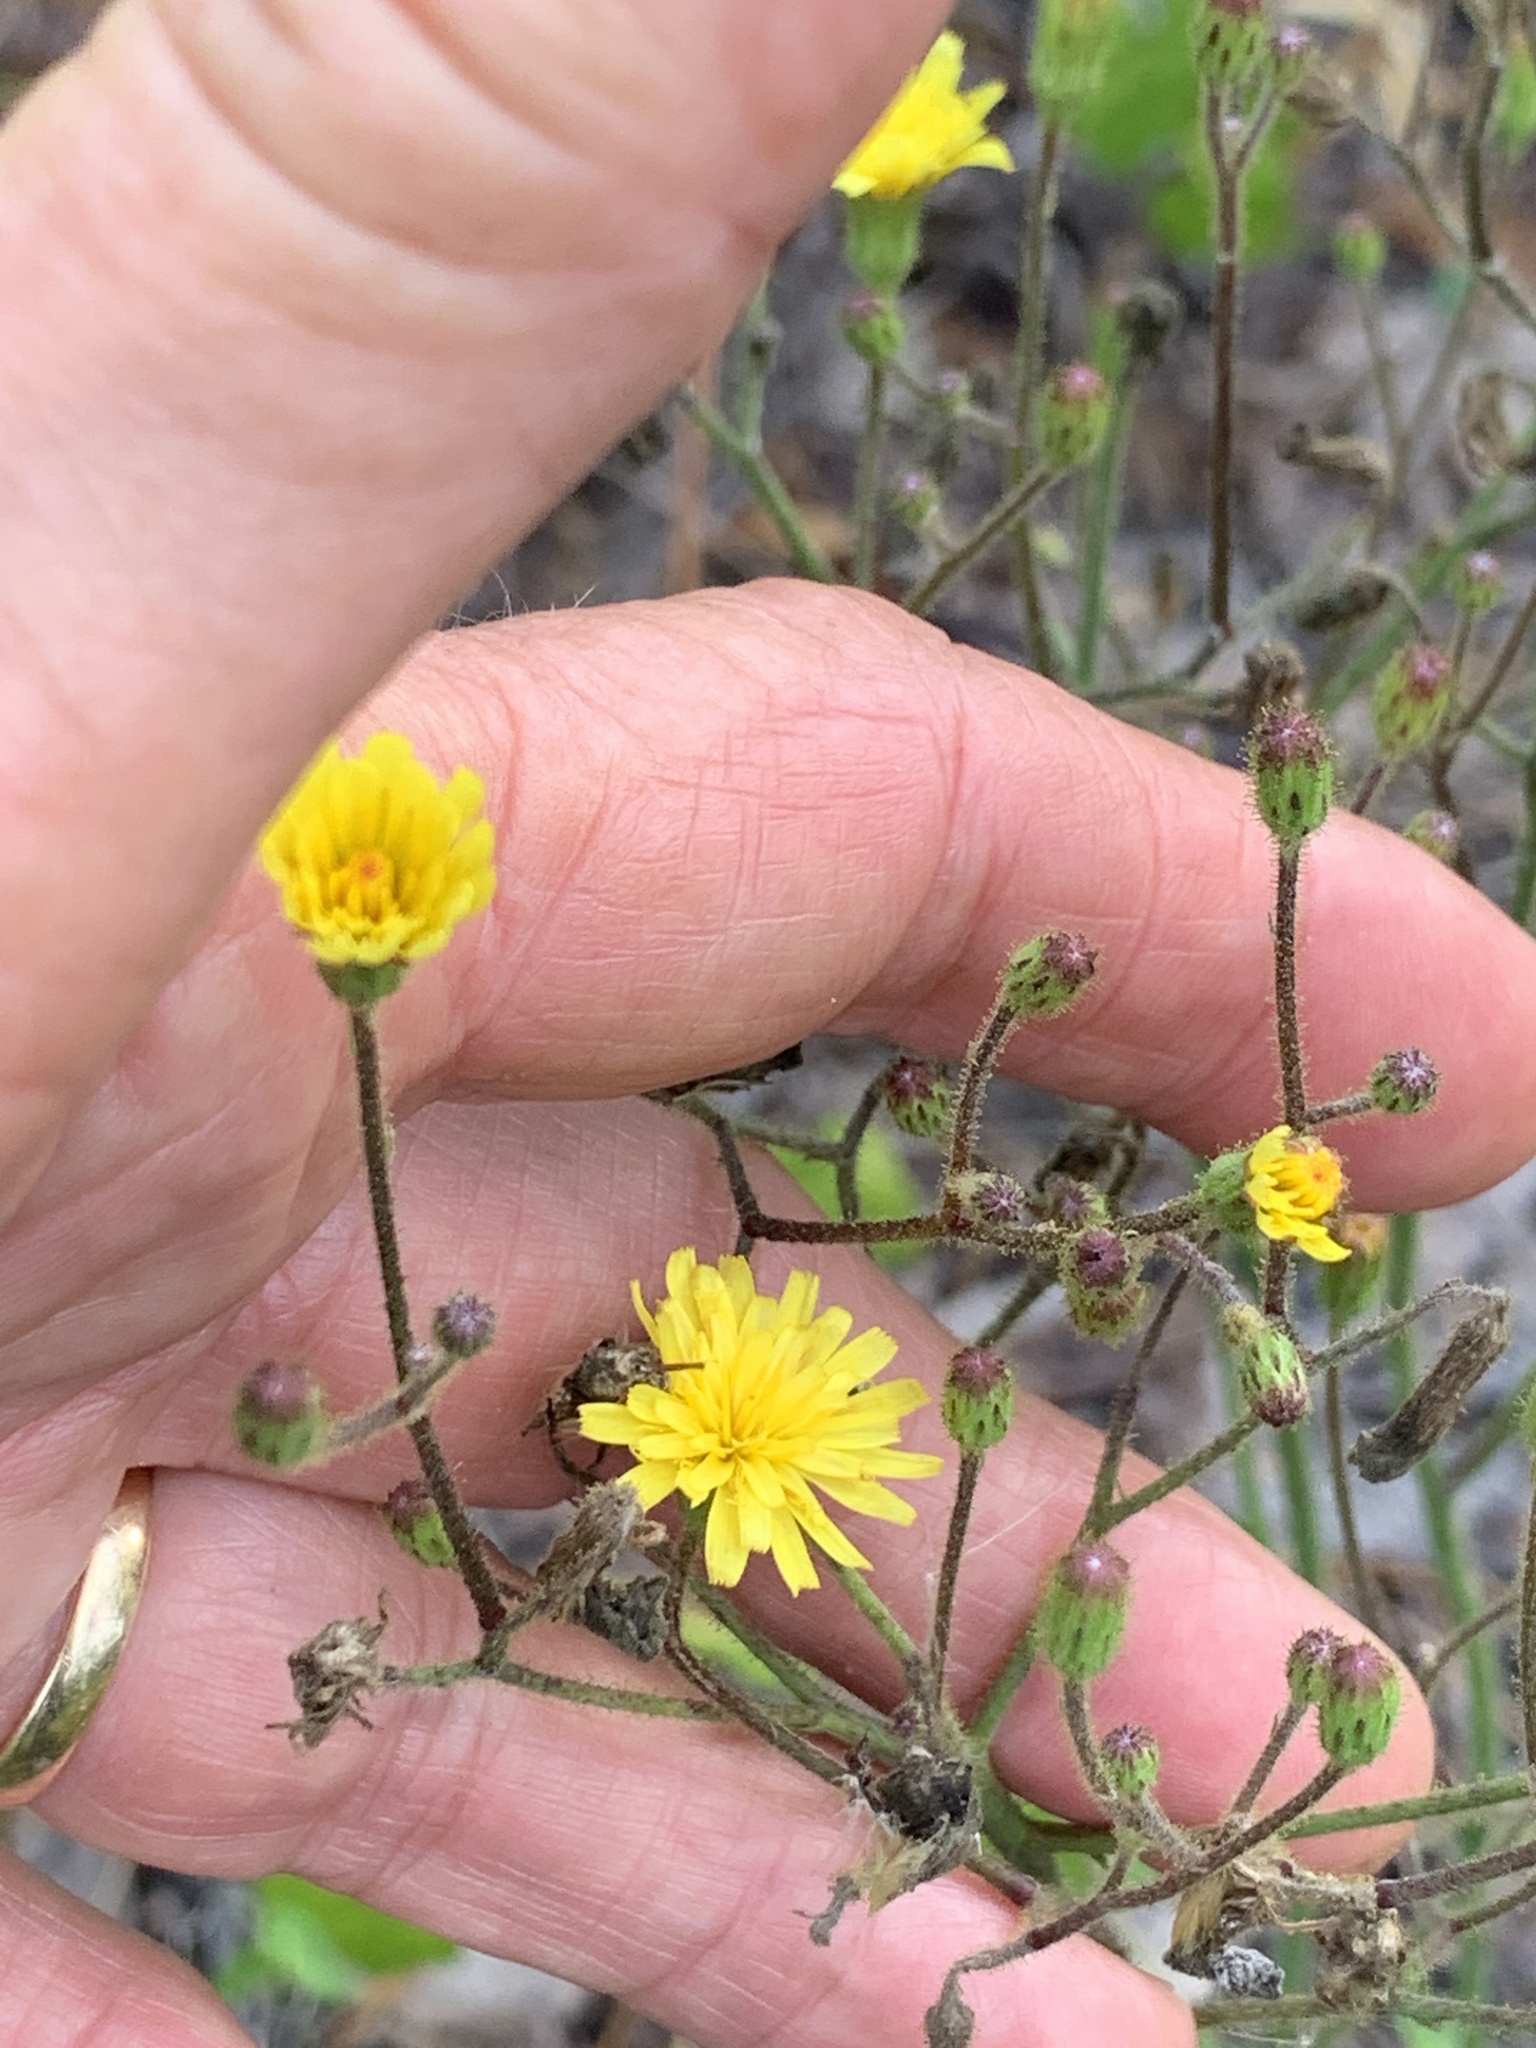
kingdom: Plantae
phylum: Tracheophyta
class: Magnoliopsida
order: Asterales
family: Asteraceae
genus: Hieracium
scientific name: Hieracium megacephalum
